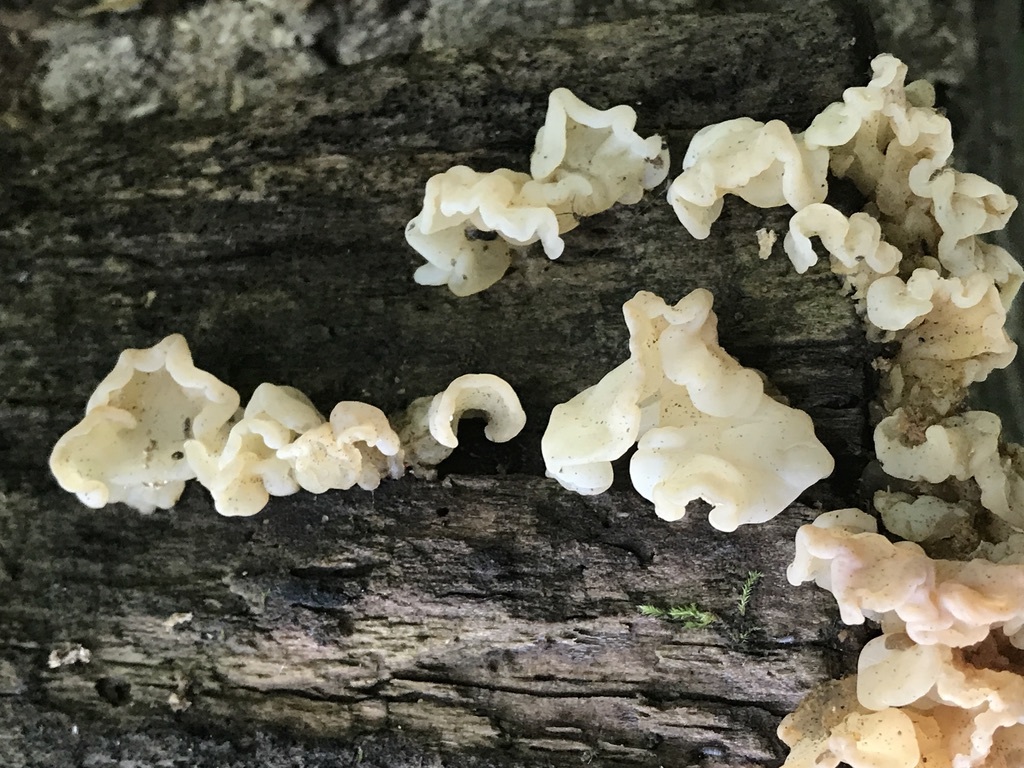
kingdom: Fungi
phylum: Basidiomycota
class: Agaricomycetes
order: Auriculariales
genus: Ductifera
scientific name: Ductifera pululahuana
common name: White jelly fungus
